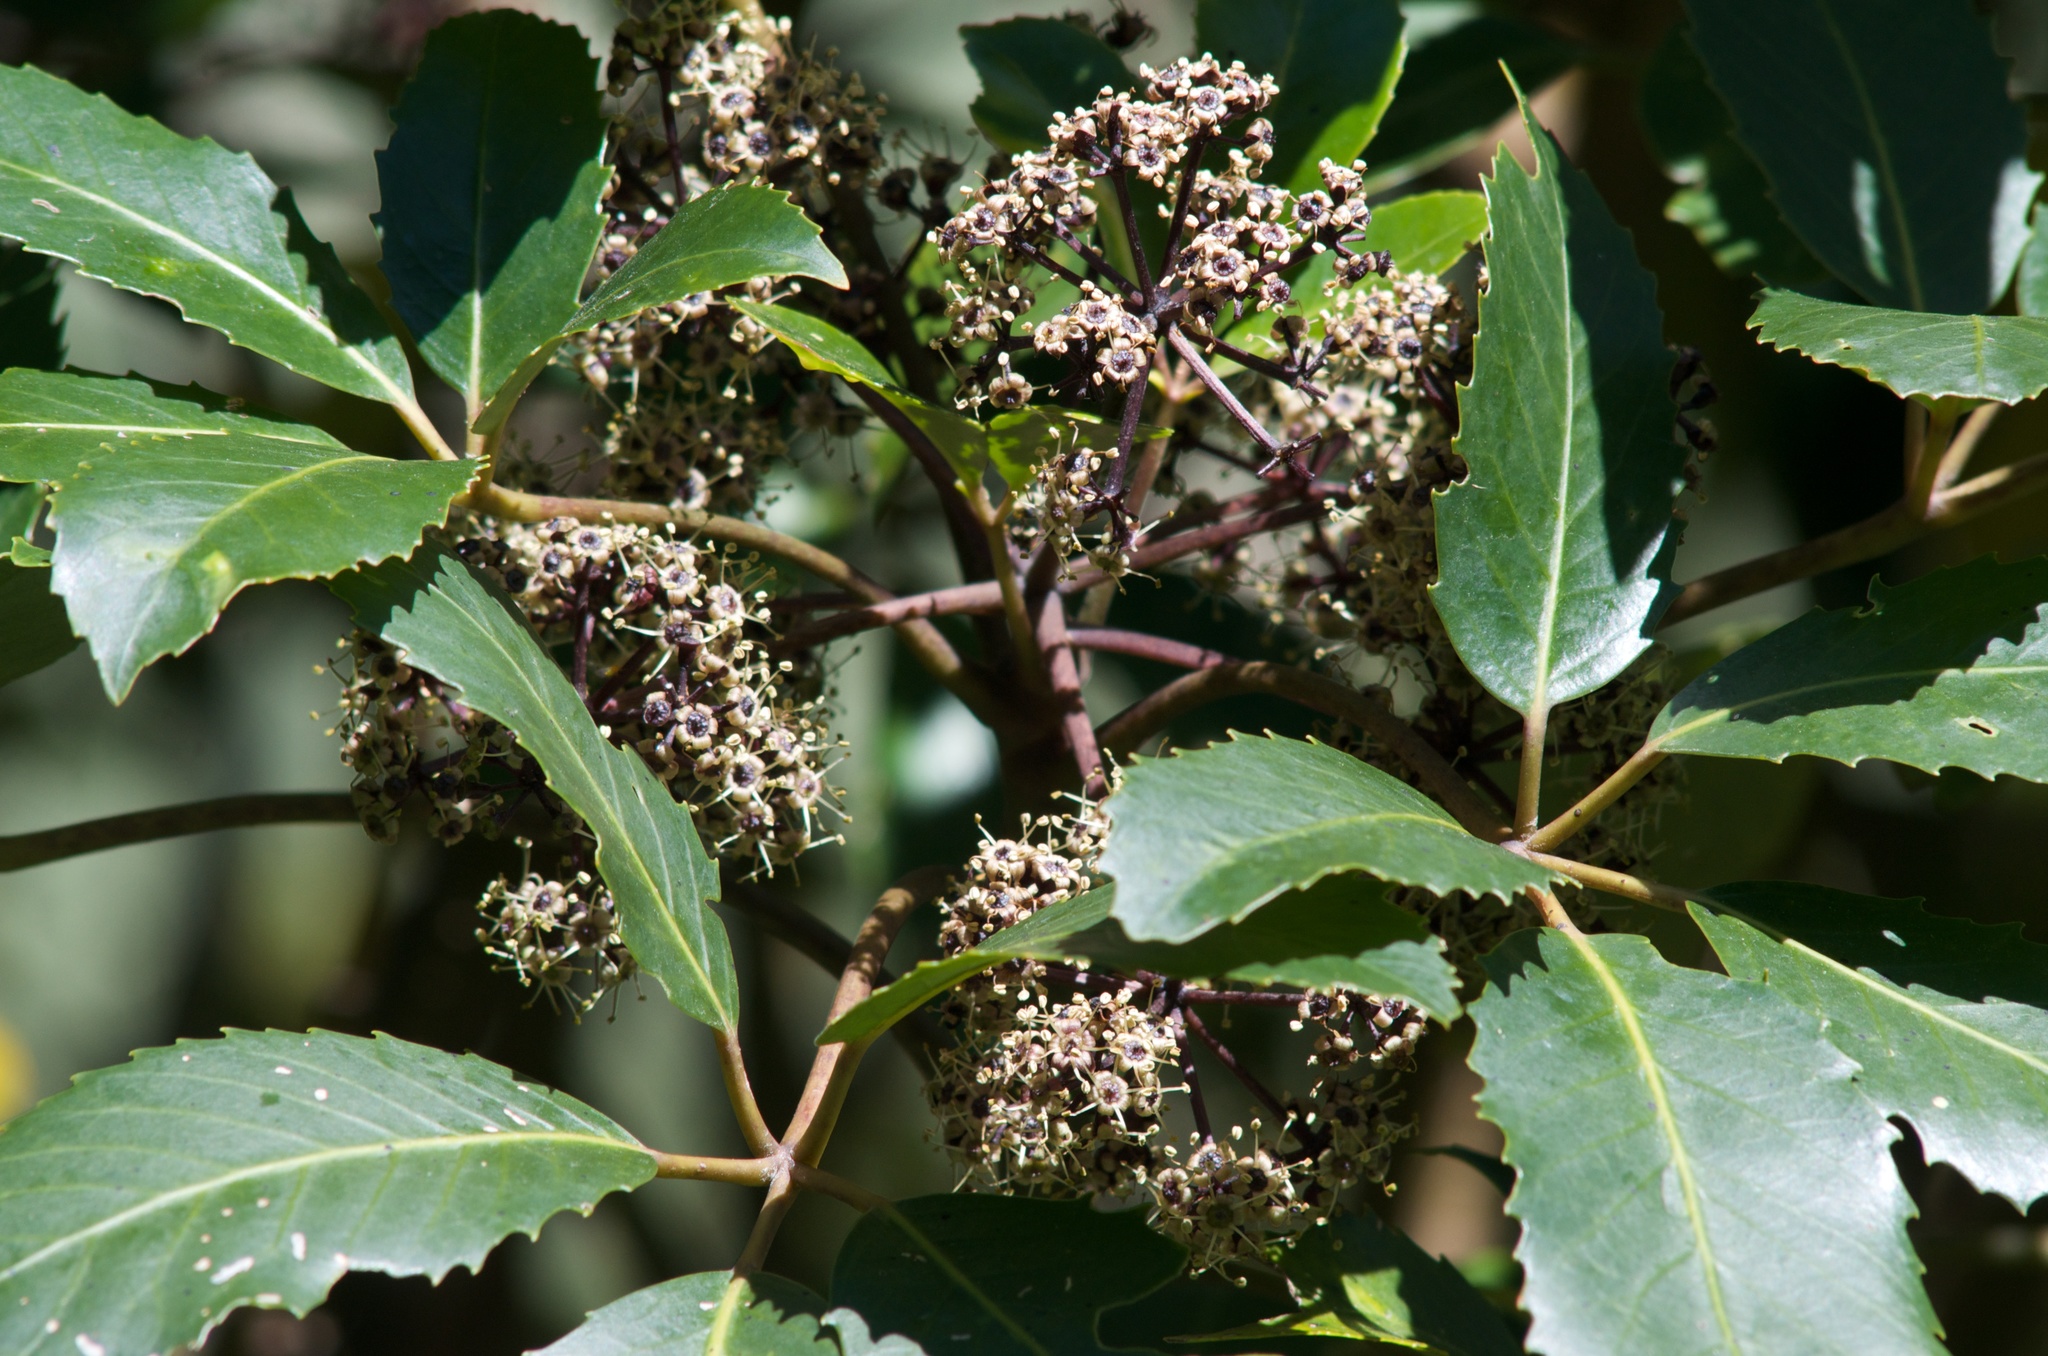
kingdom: Plantae
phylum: Tracheophyta
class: Magnoliopsida
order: Apiales
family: Araliaceae
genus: Neopanax
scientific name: Neopanax arboreus
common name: Five-fingers
